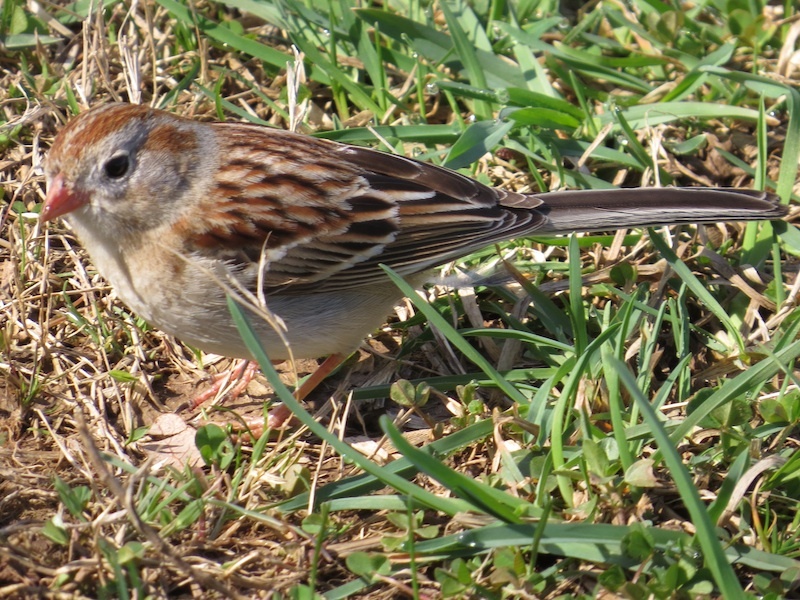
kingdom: Animalia
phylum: Chordata
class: Aves
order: Passeriformes
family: Passerellidae
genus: Spizella
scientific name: Spizella pusilla
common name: Field sparrow
